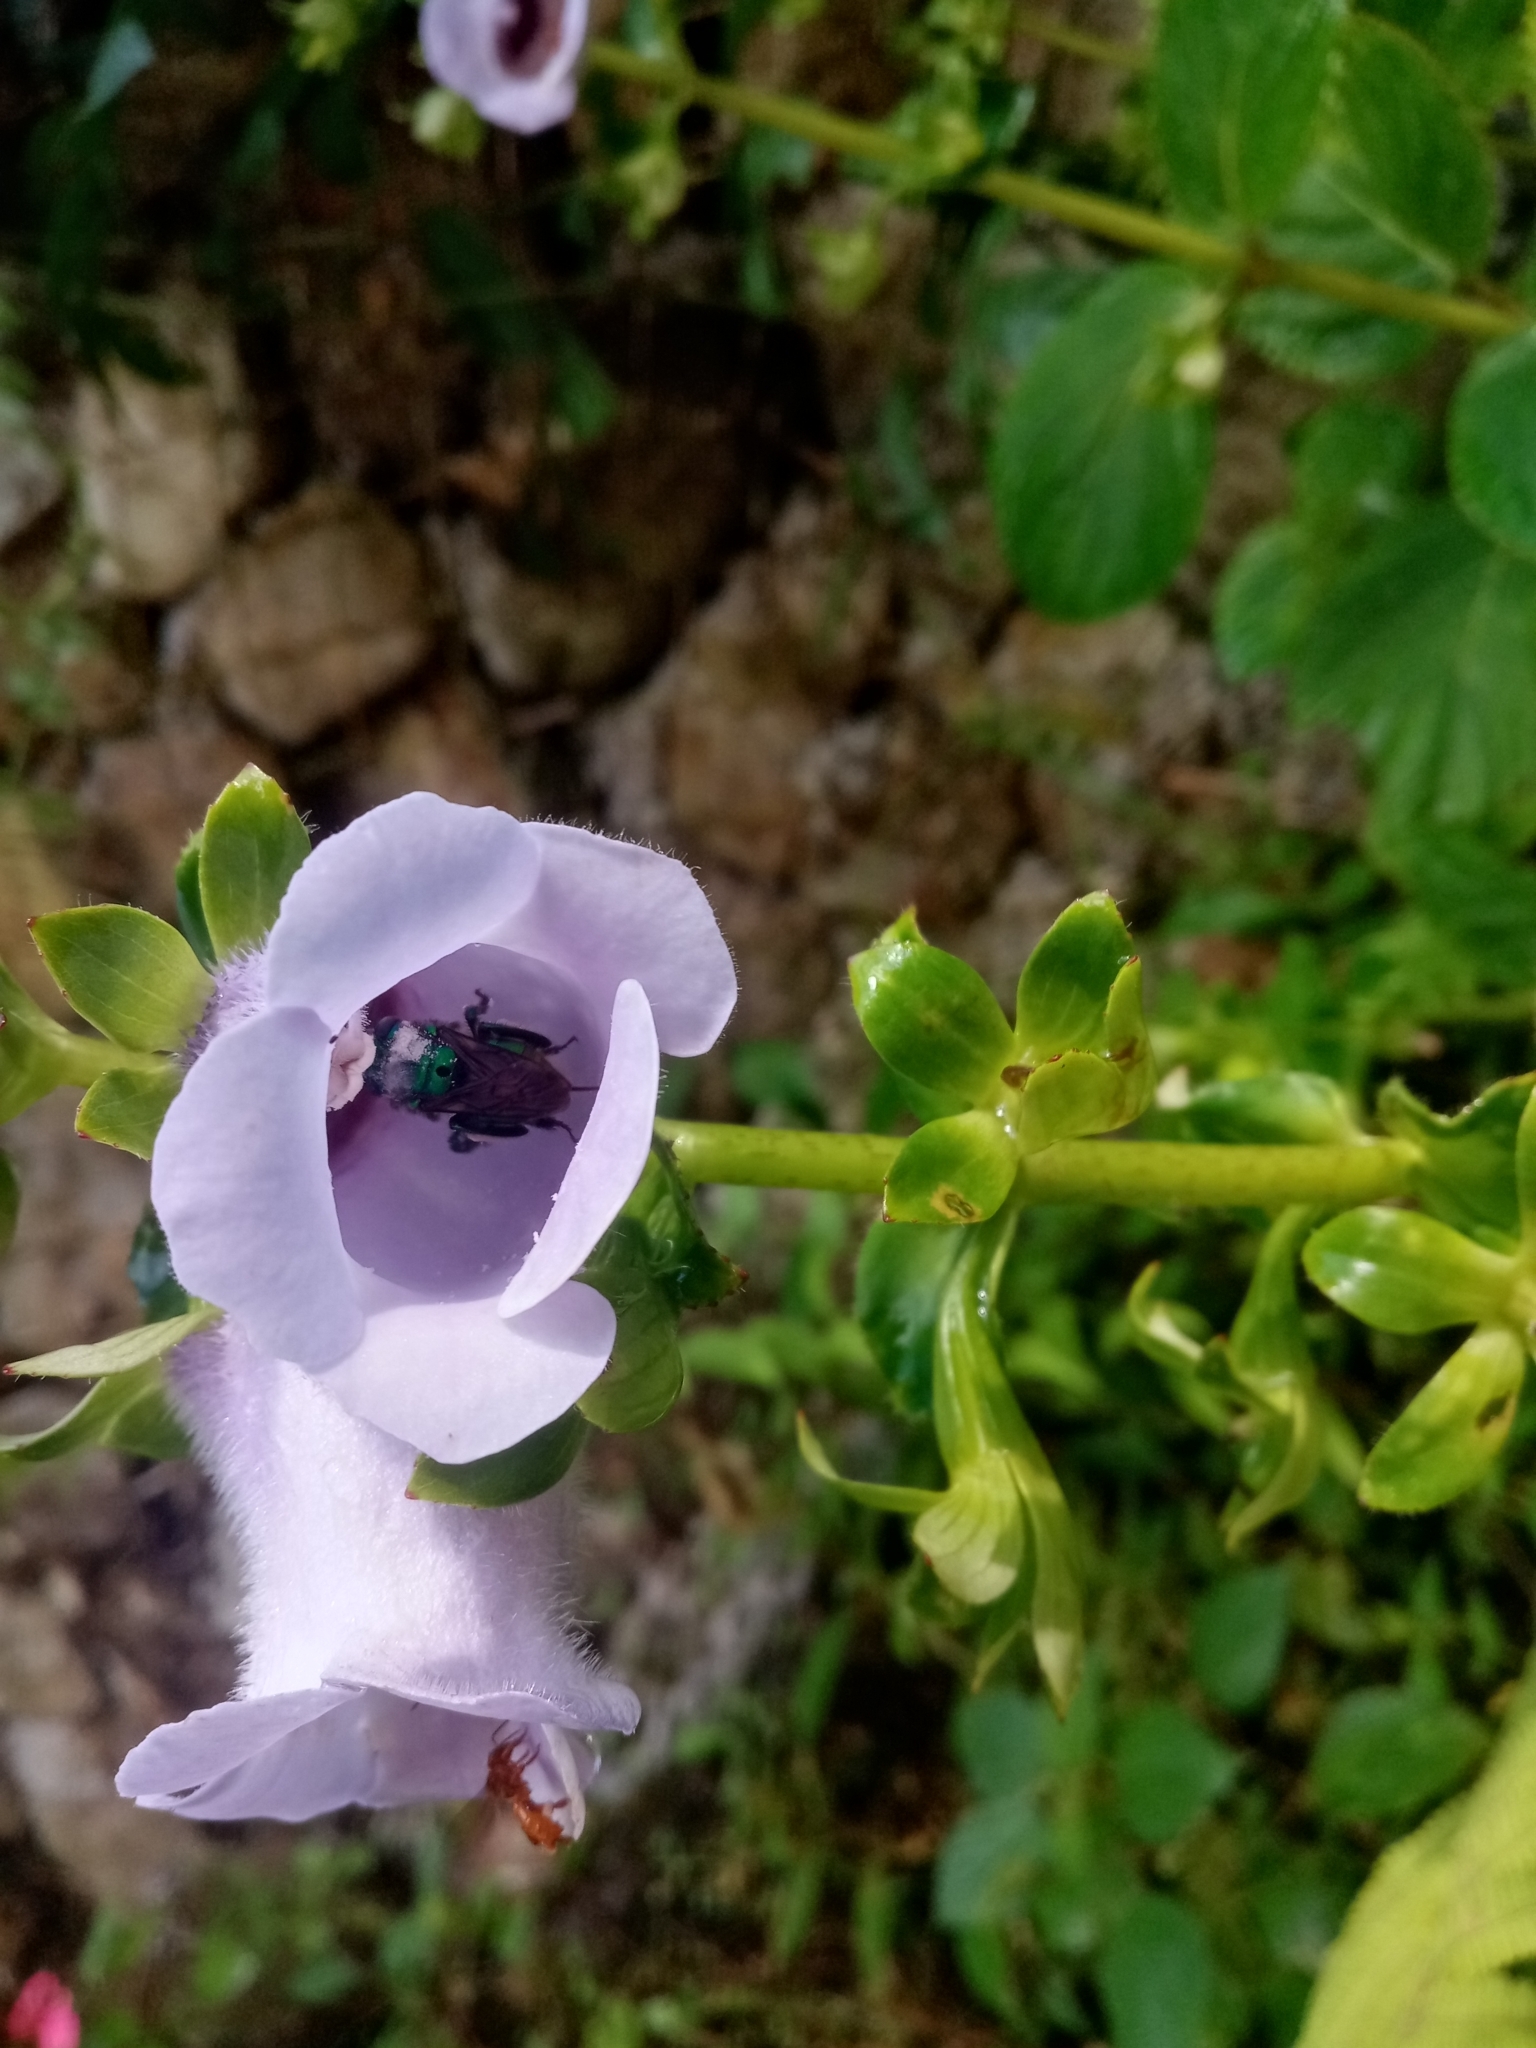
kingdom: Plantae
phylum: Tracheophyta
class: Magnoliopsida
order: Lamiales
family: Gesneriaceae
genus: Gloxinia
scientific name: Gloxinia perennis
